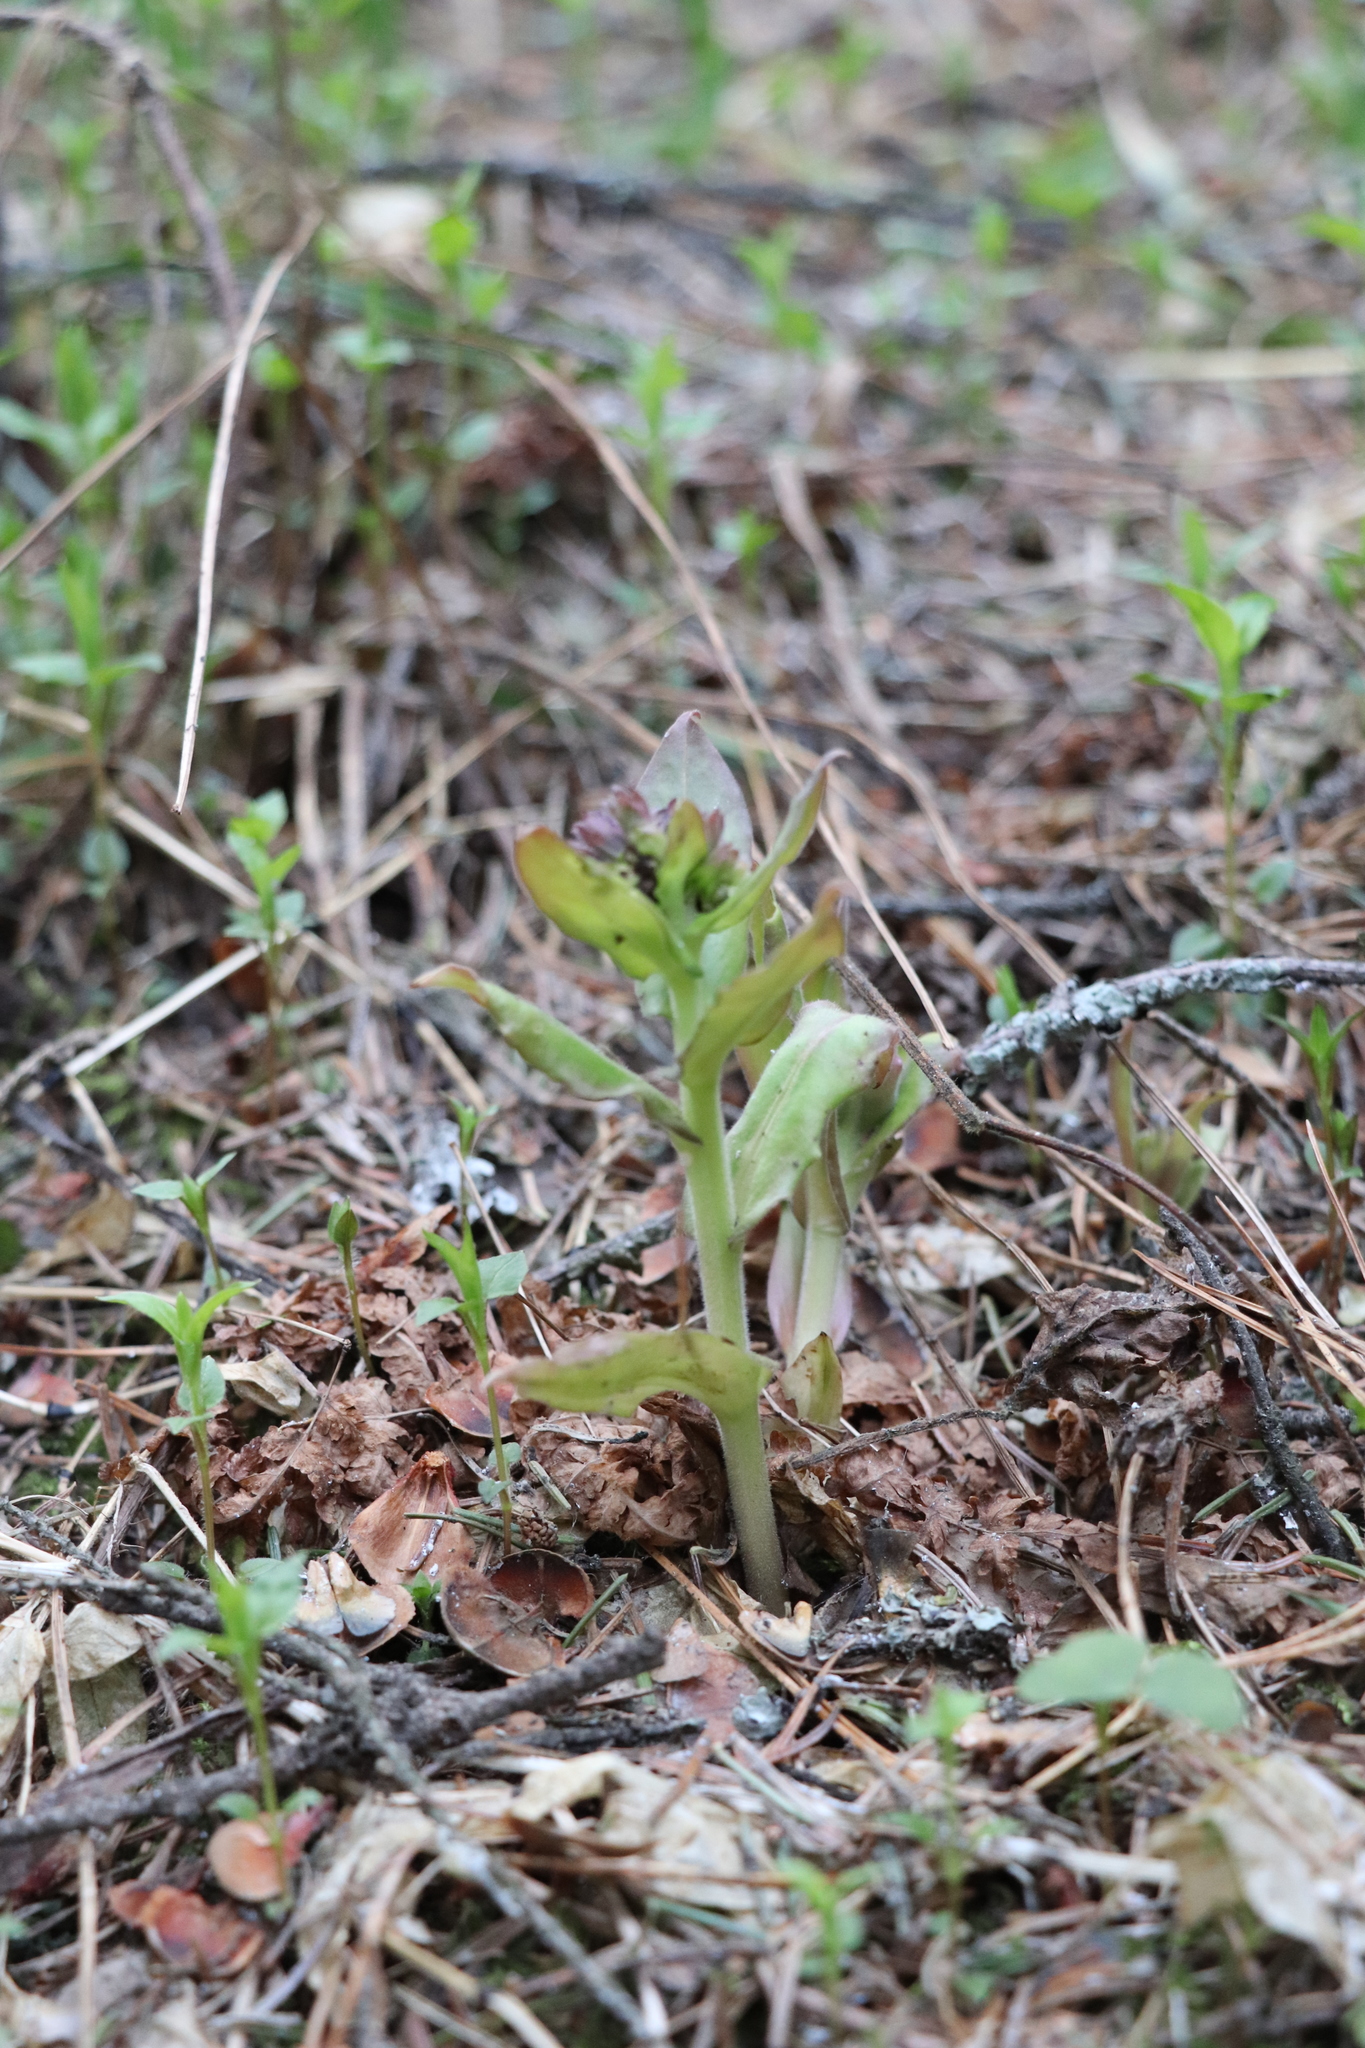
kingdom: Plantae
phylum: Tracheophyta
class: Magnoliopsida
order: Boraginales
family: Boraginaceae
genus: Pulmonaria
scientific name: Pulmonaria mollis
